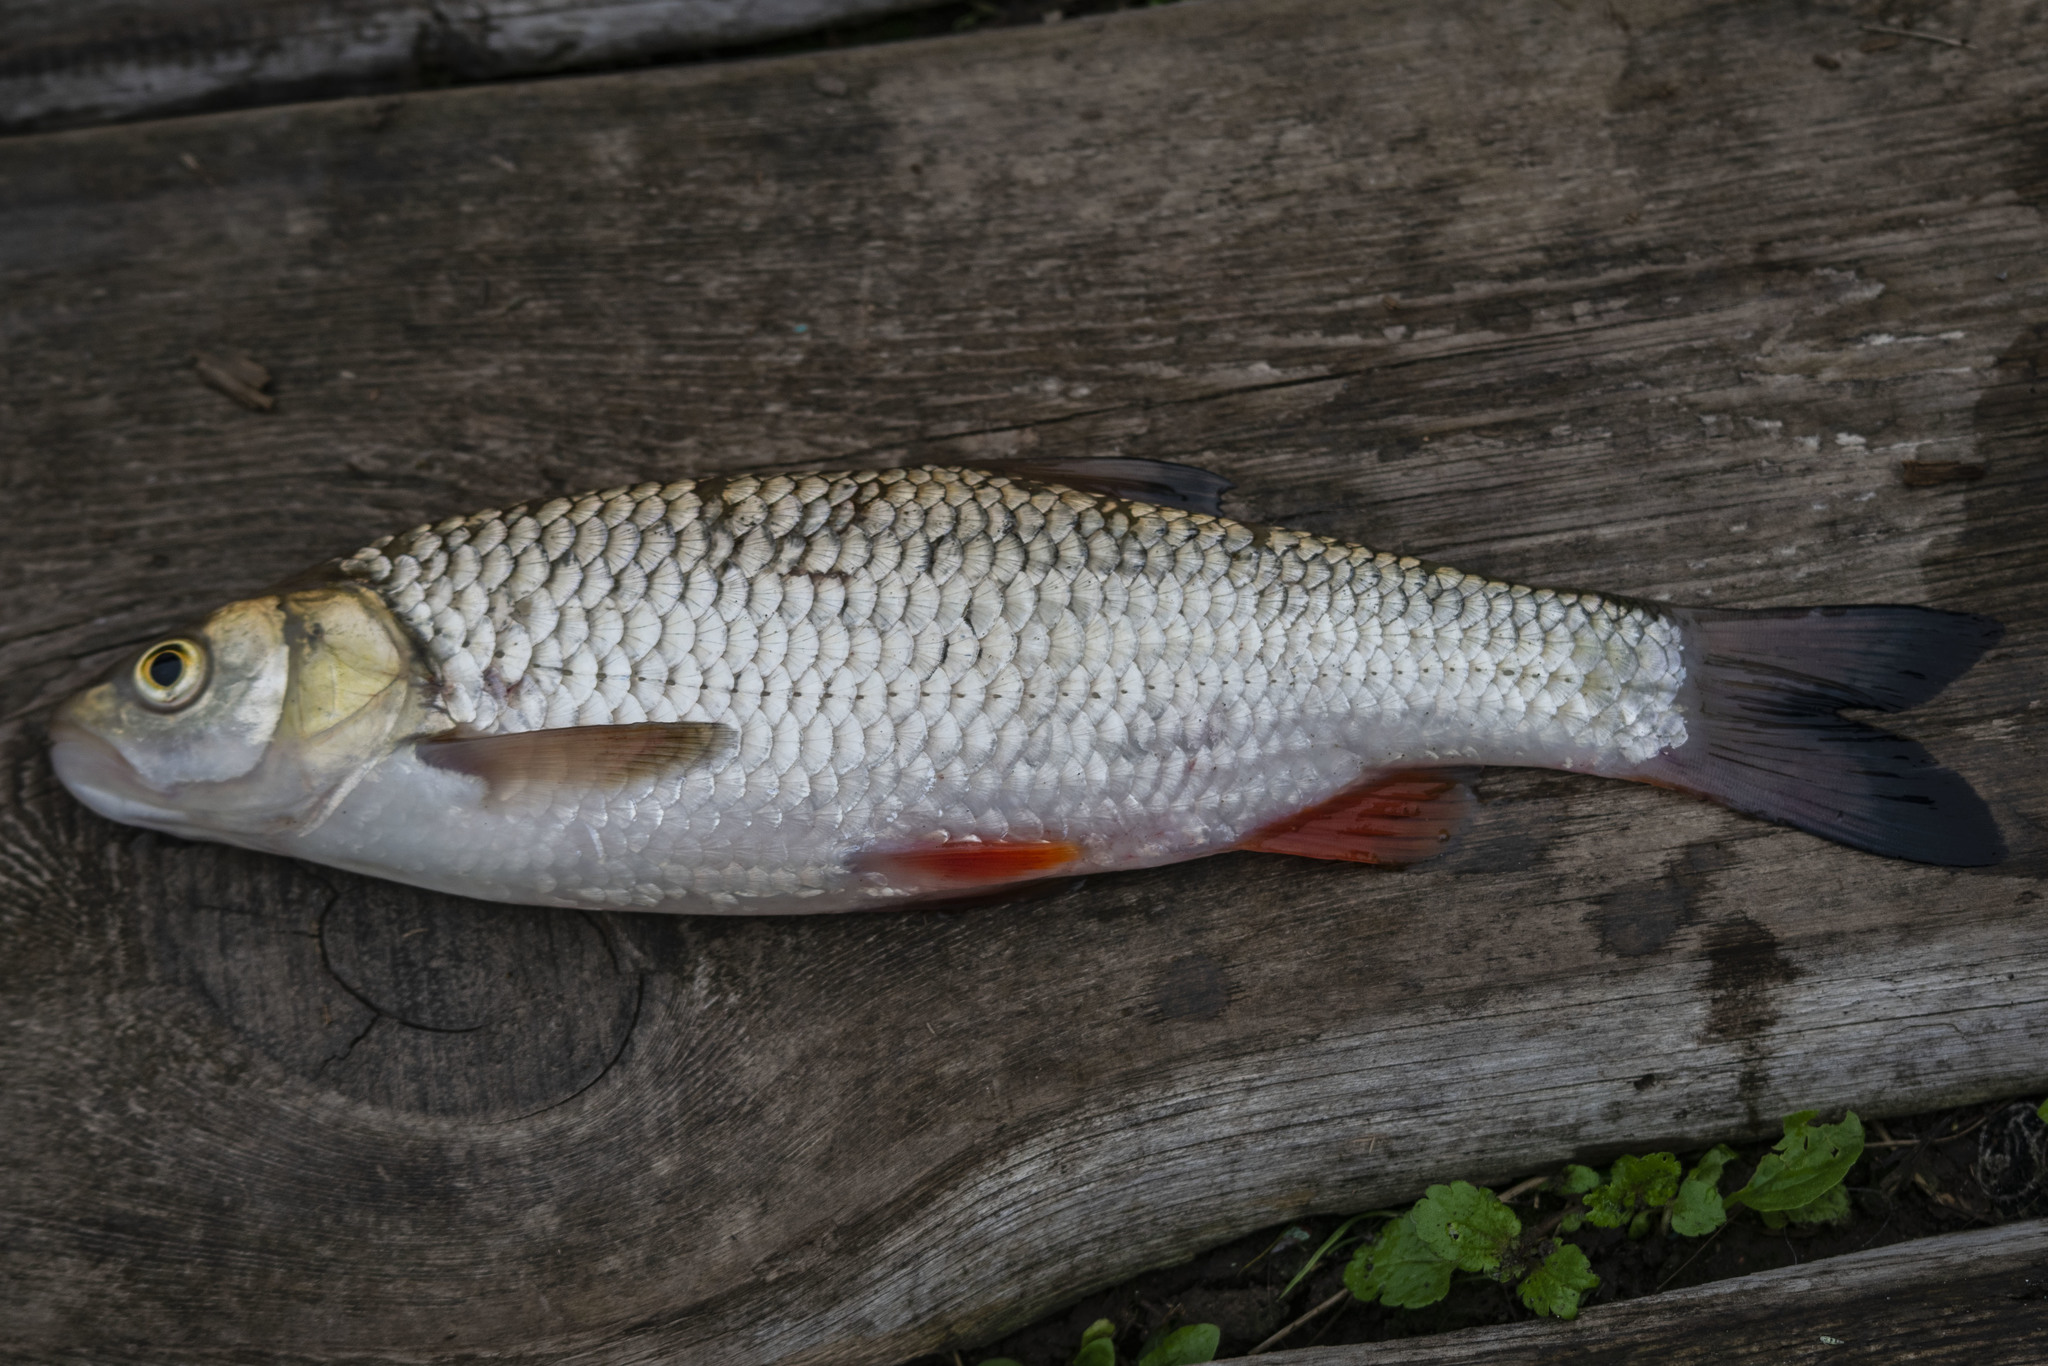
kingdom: Animalia
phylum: Chordata
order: Cypriniformes
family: Cyprinidae
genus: Squalius
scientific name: Squalius cephalus
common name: Chub
